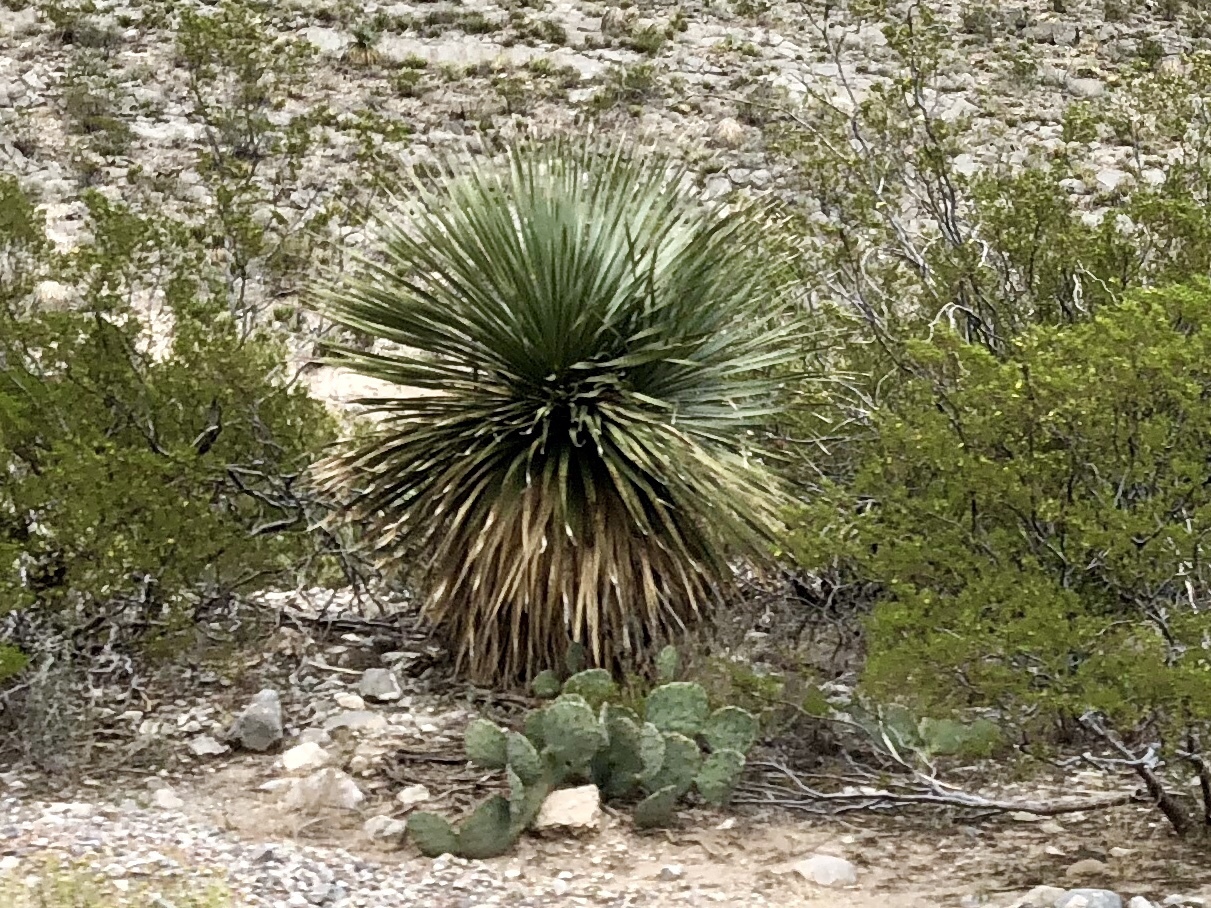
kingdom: Plantae
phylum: Tracheophyta
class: Liliopsida
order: Asparagales
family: Asparagaceae
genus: Dasylirion
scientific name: Dasylirion wheeleri
